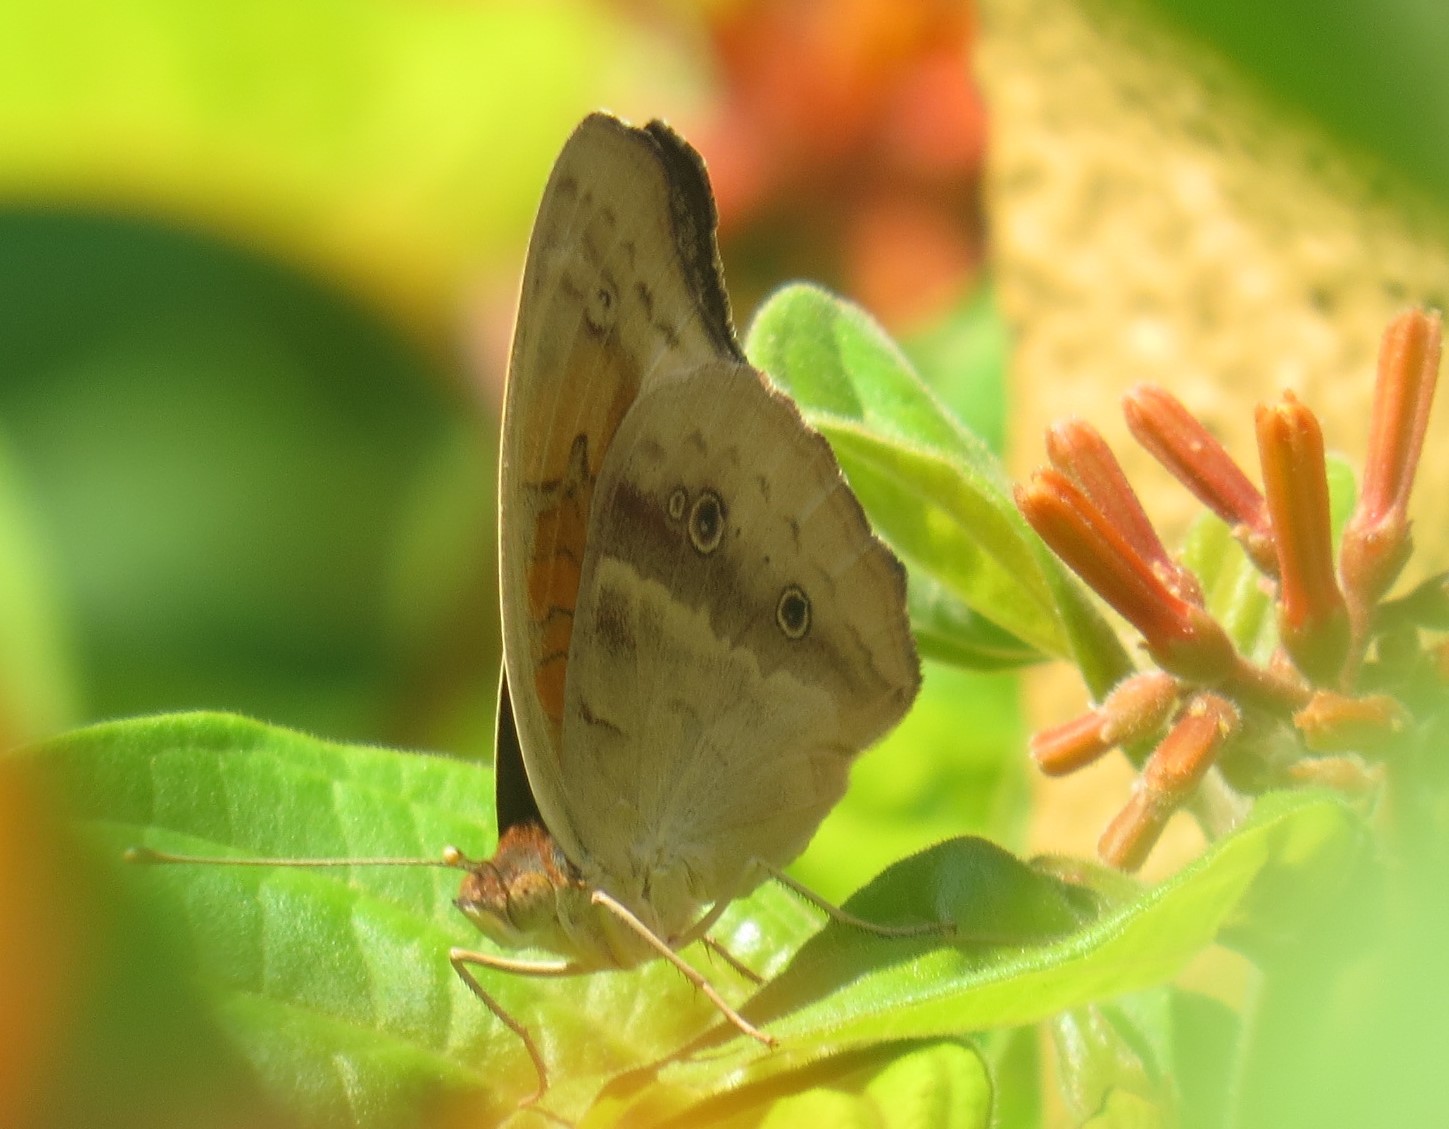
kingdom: Animalia
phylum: Arthropoda
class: Insecta
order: Lepidoptera
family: Nymphalidae
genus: Junonia
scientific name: Junonia stemosa
